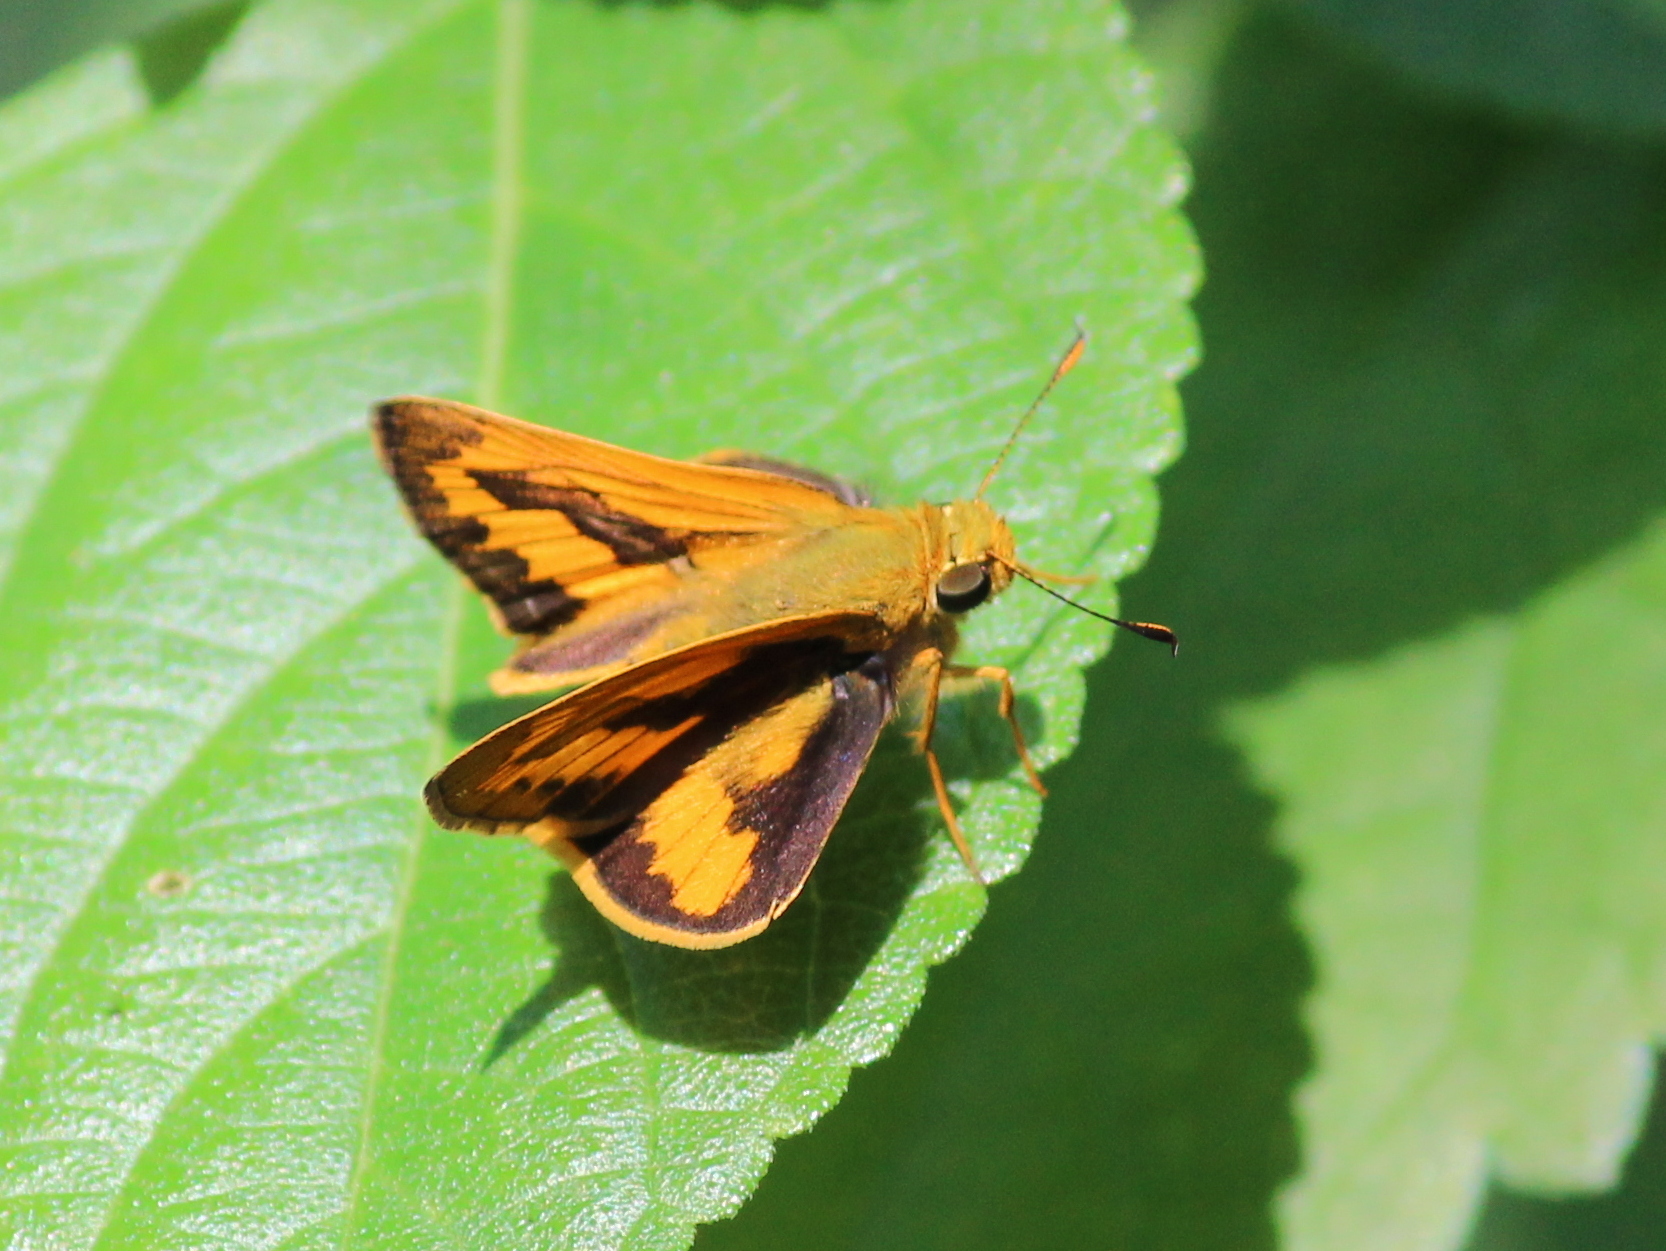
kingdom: Animalia
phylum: Arthropoda
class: Insecta
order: Lepidoptera
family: Hesperiidae
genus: Telicota
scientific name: Telicota bambusae
